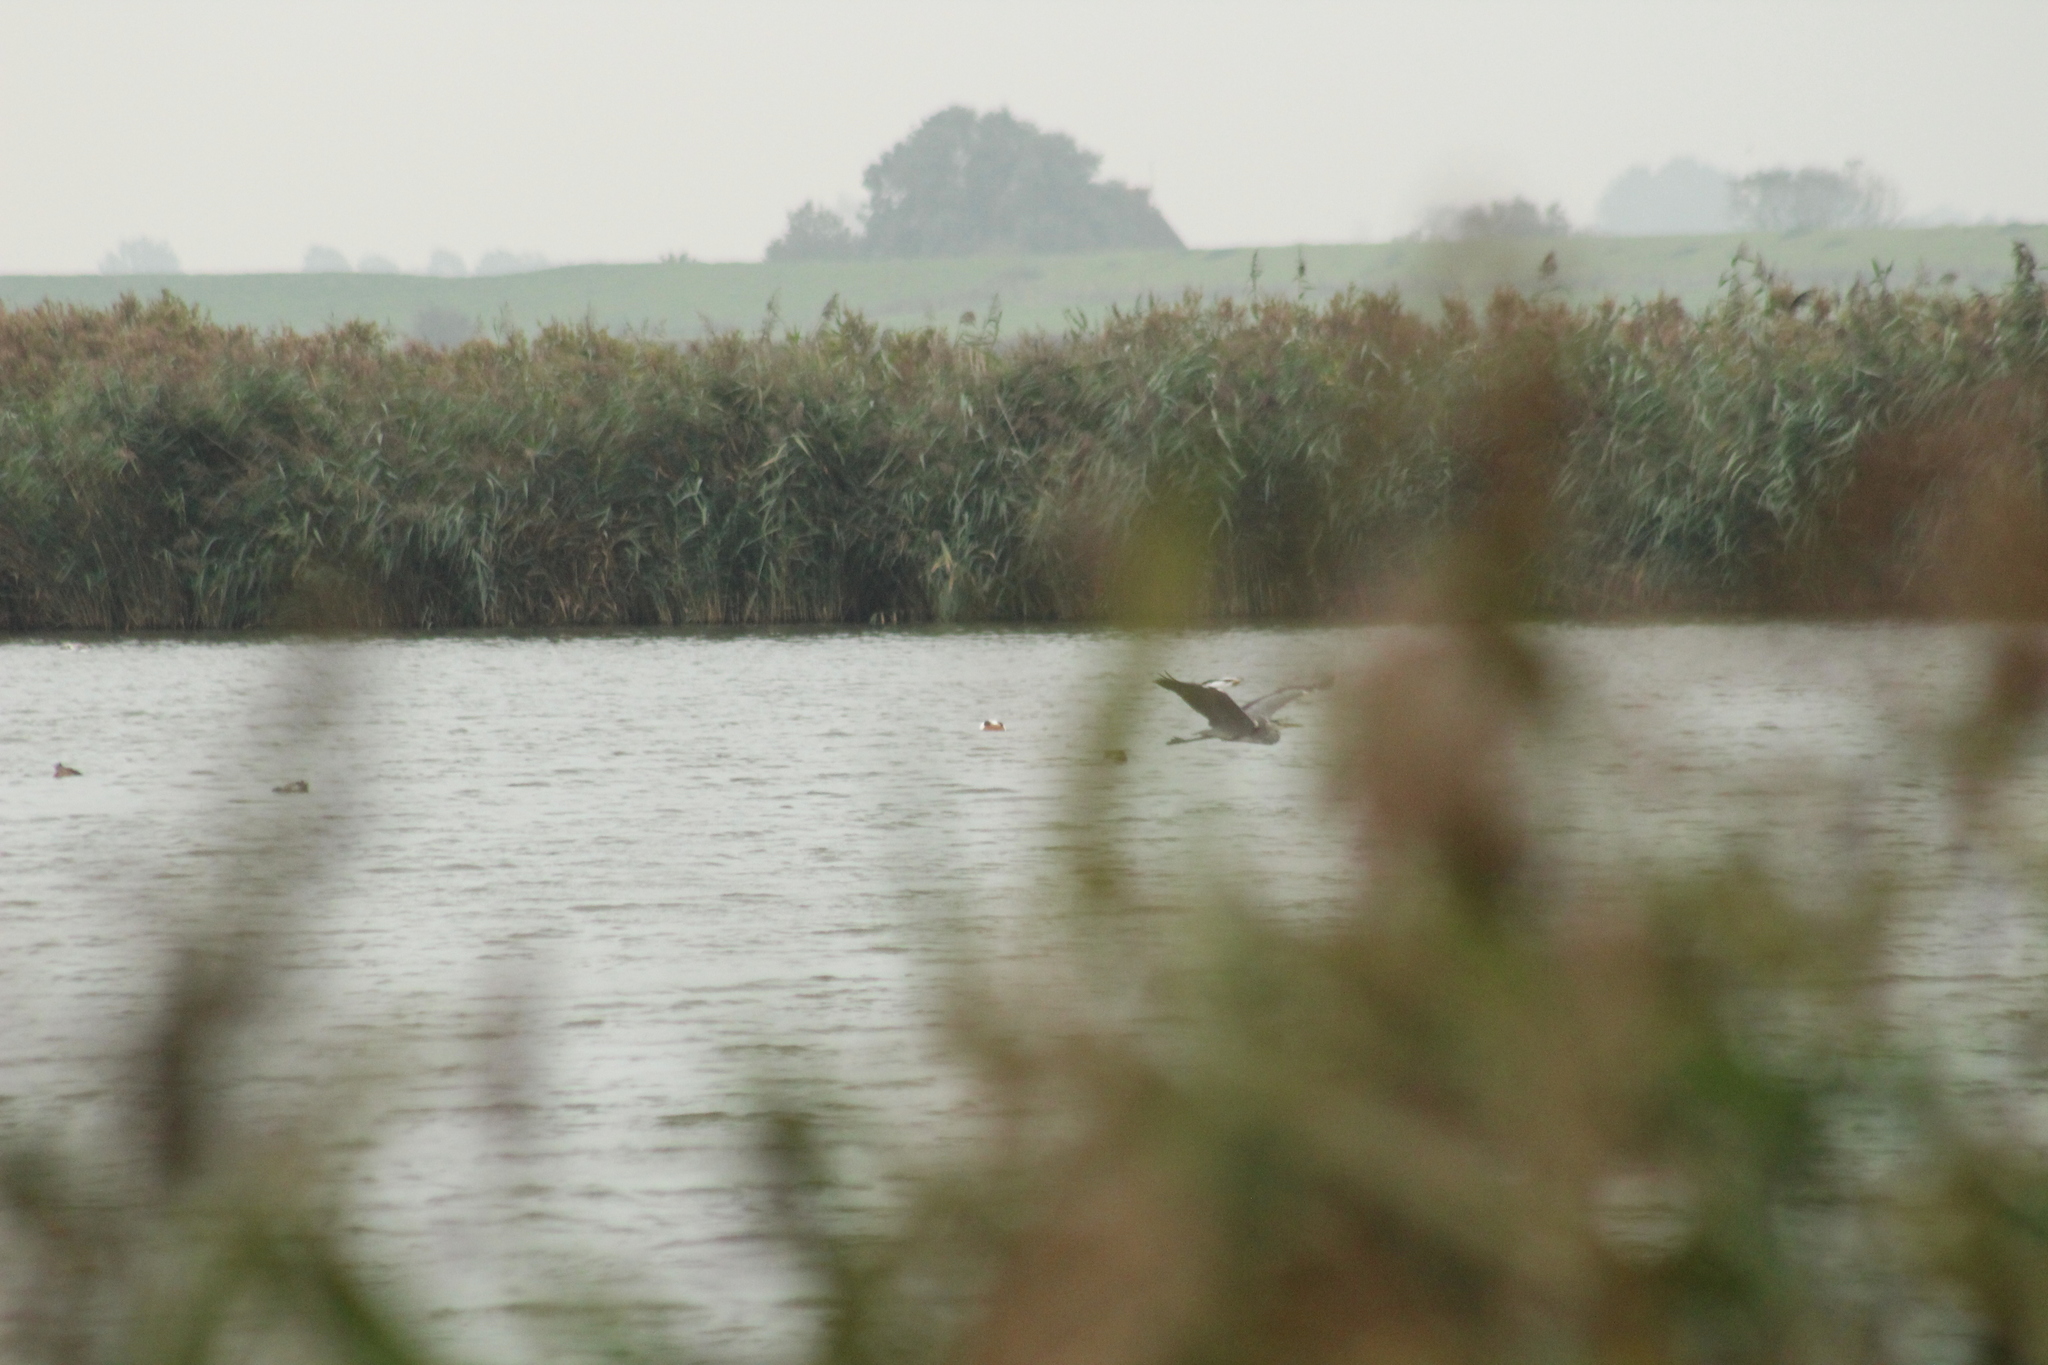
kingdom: Animalia
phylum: Chordata
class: Aves
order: Pelecaniformes
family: Ardeidae
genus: Ardea
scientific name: Ardea cinerea
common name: Grey heron
